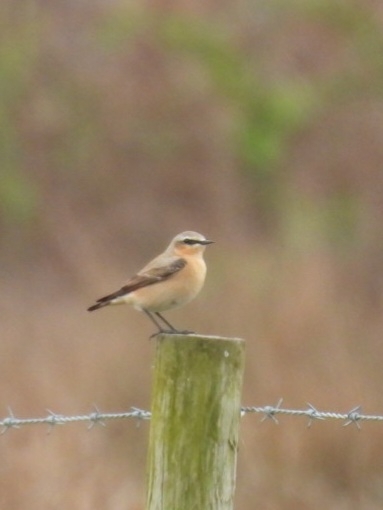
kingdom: Animalia
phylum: Chordata
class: Aves
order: Passeriformes
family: Muscicapidae
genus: Oenanthe
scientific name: Oenanthe oenanthe
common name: Northern wheatear
